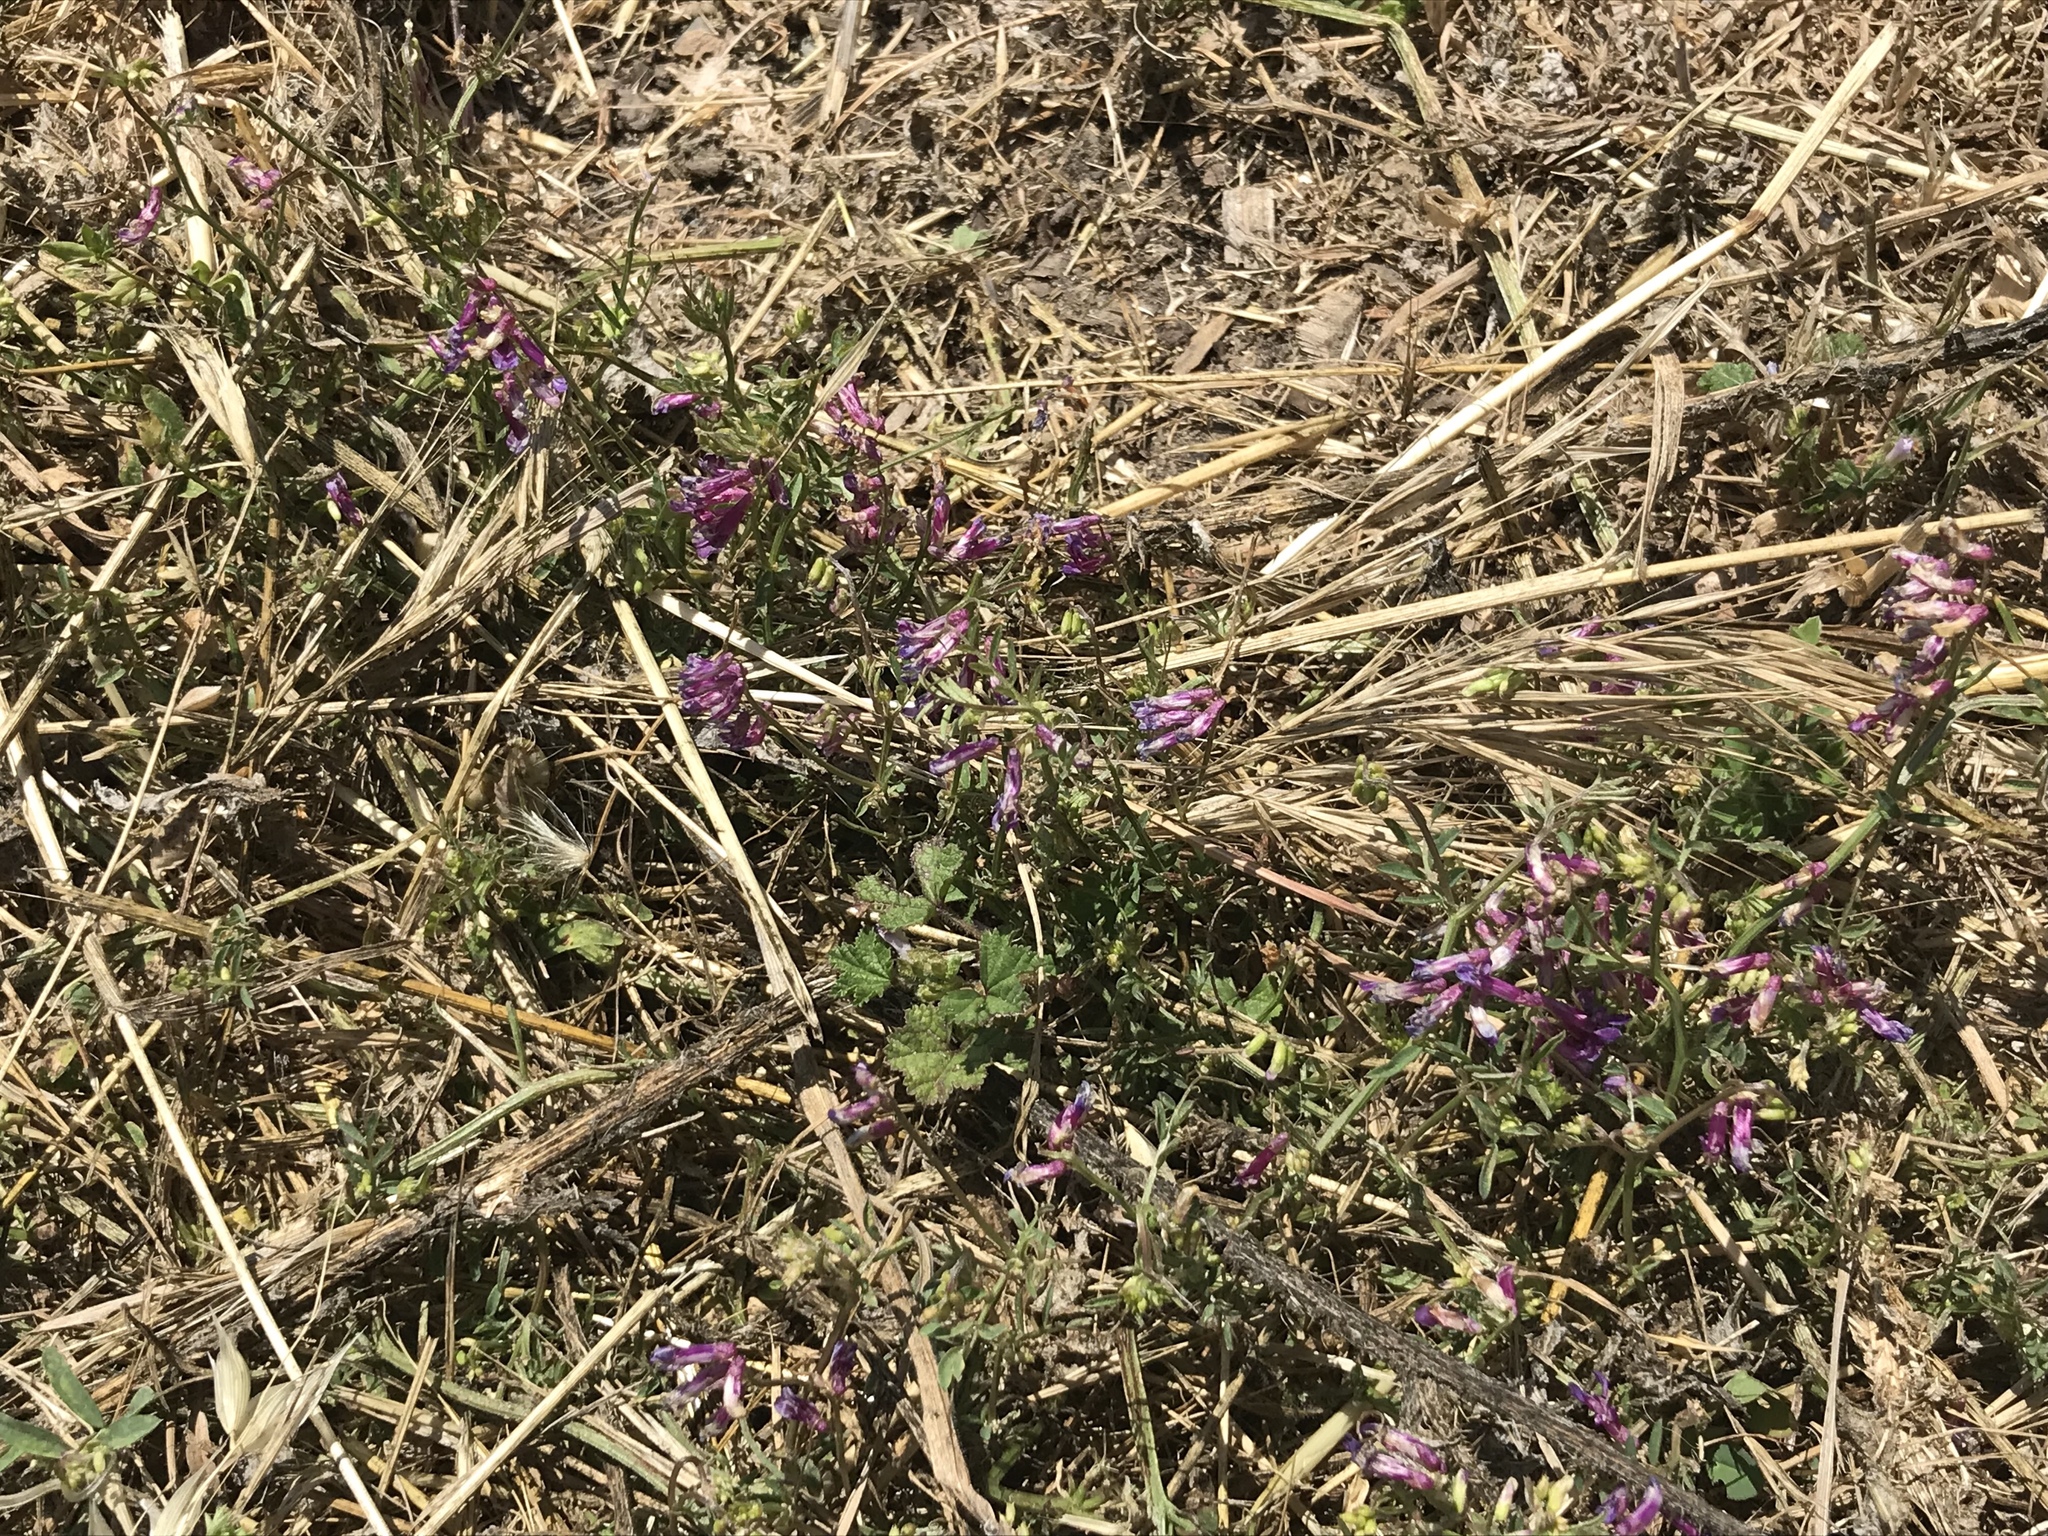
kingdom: Plantae
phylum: Tracheophyta
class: Magnoliopsida
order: Fabales
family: Fabaceae
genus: Vicia
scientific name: Vicia villosa
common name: Fodder vetch
